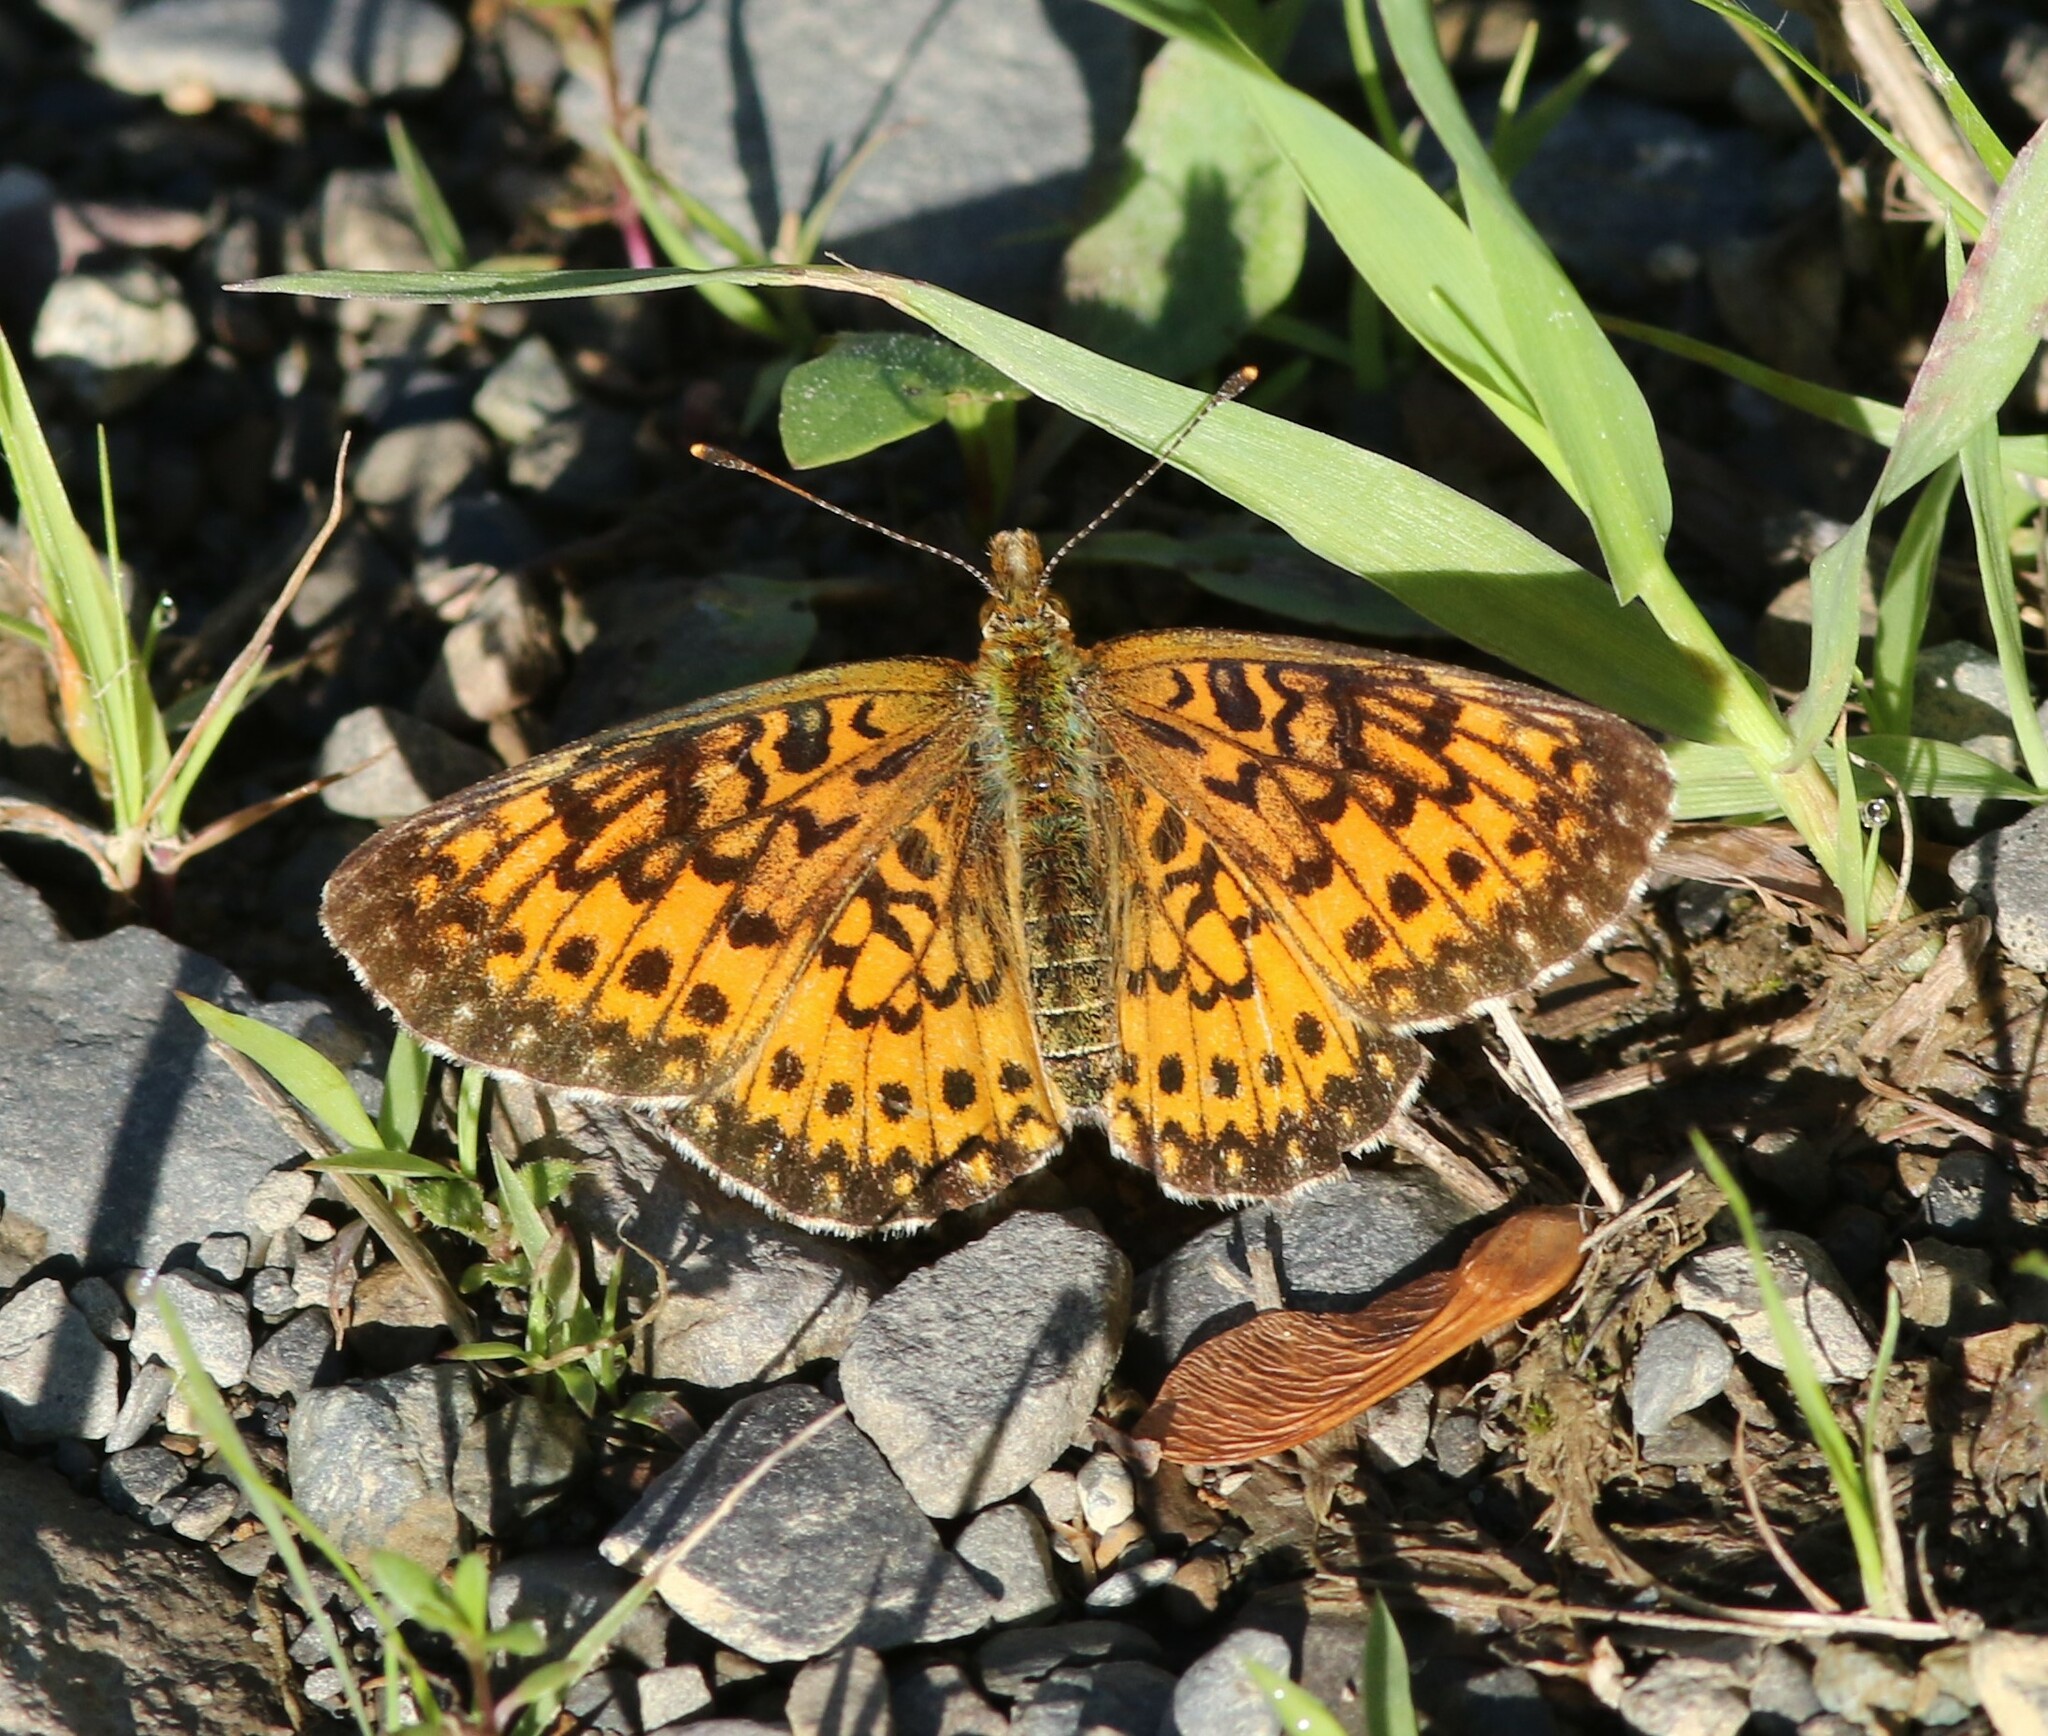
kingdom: Animalia
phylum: Arthropoda
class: Insecta
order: Lepidoptera
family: Nymphalidae
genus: Boloria
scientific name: Boloria
